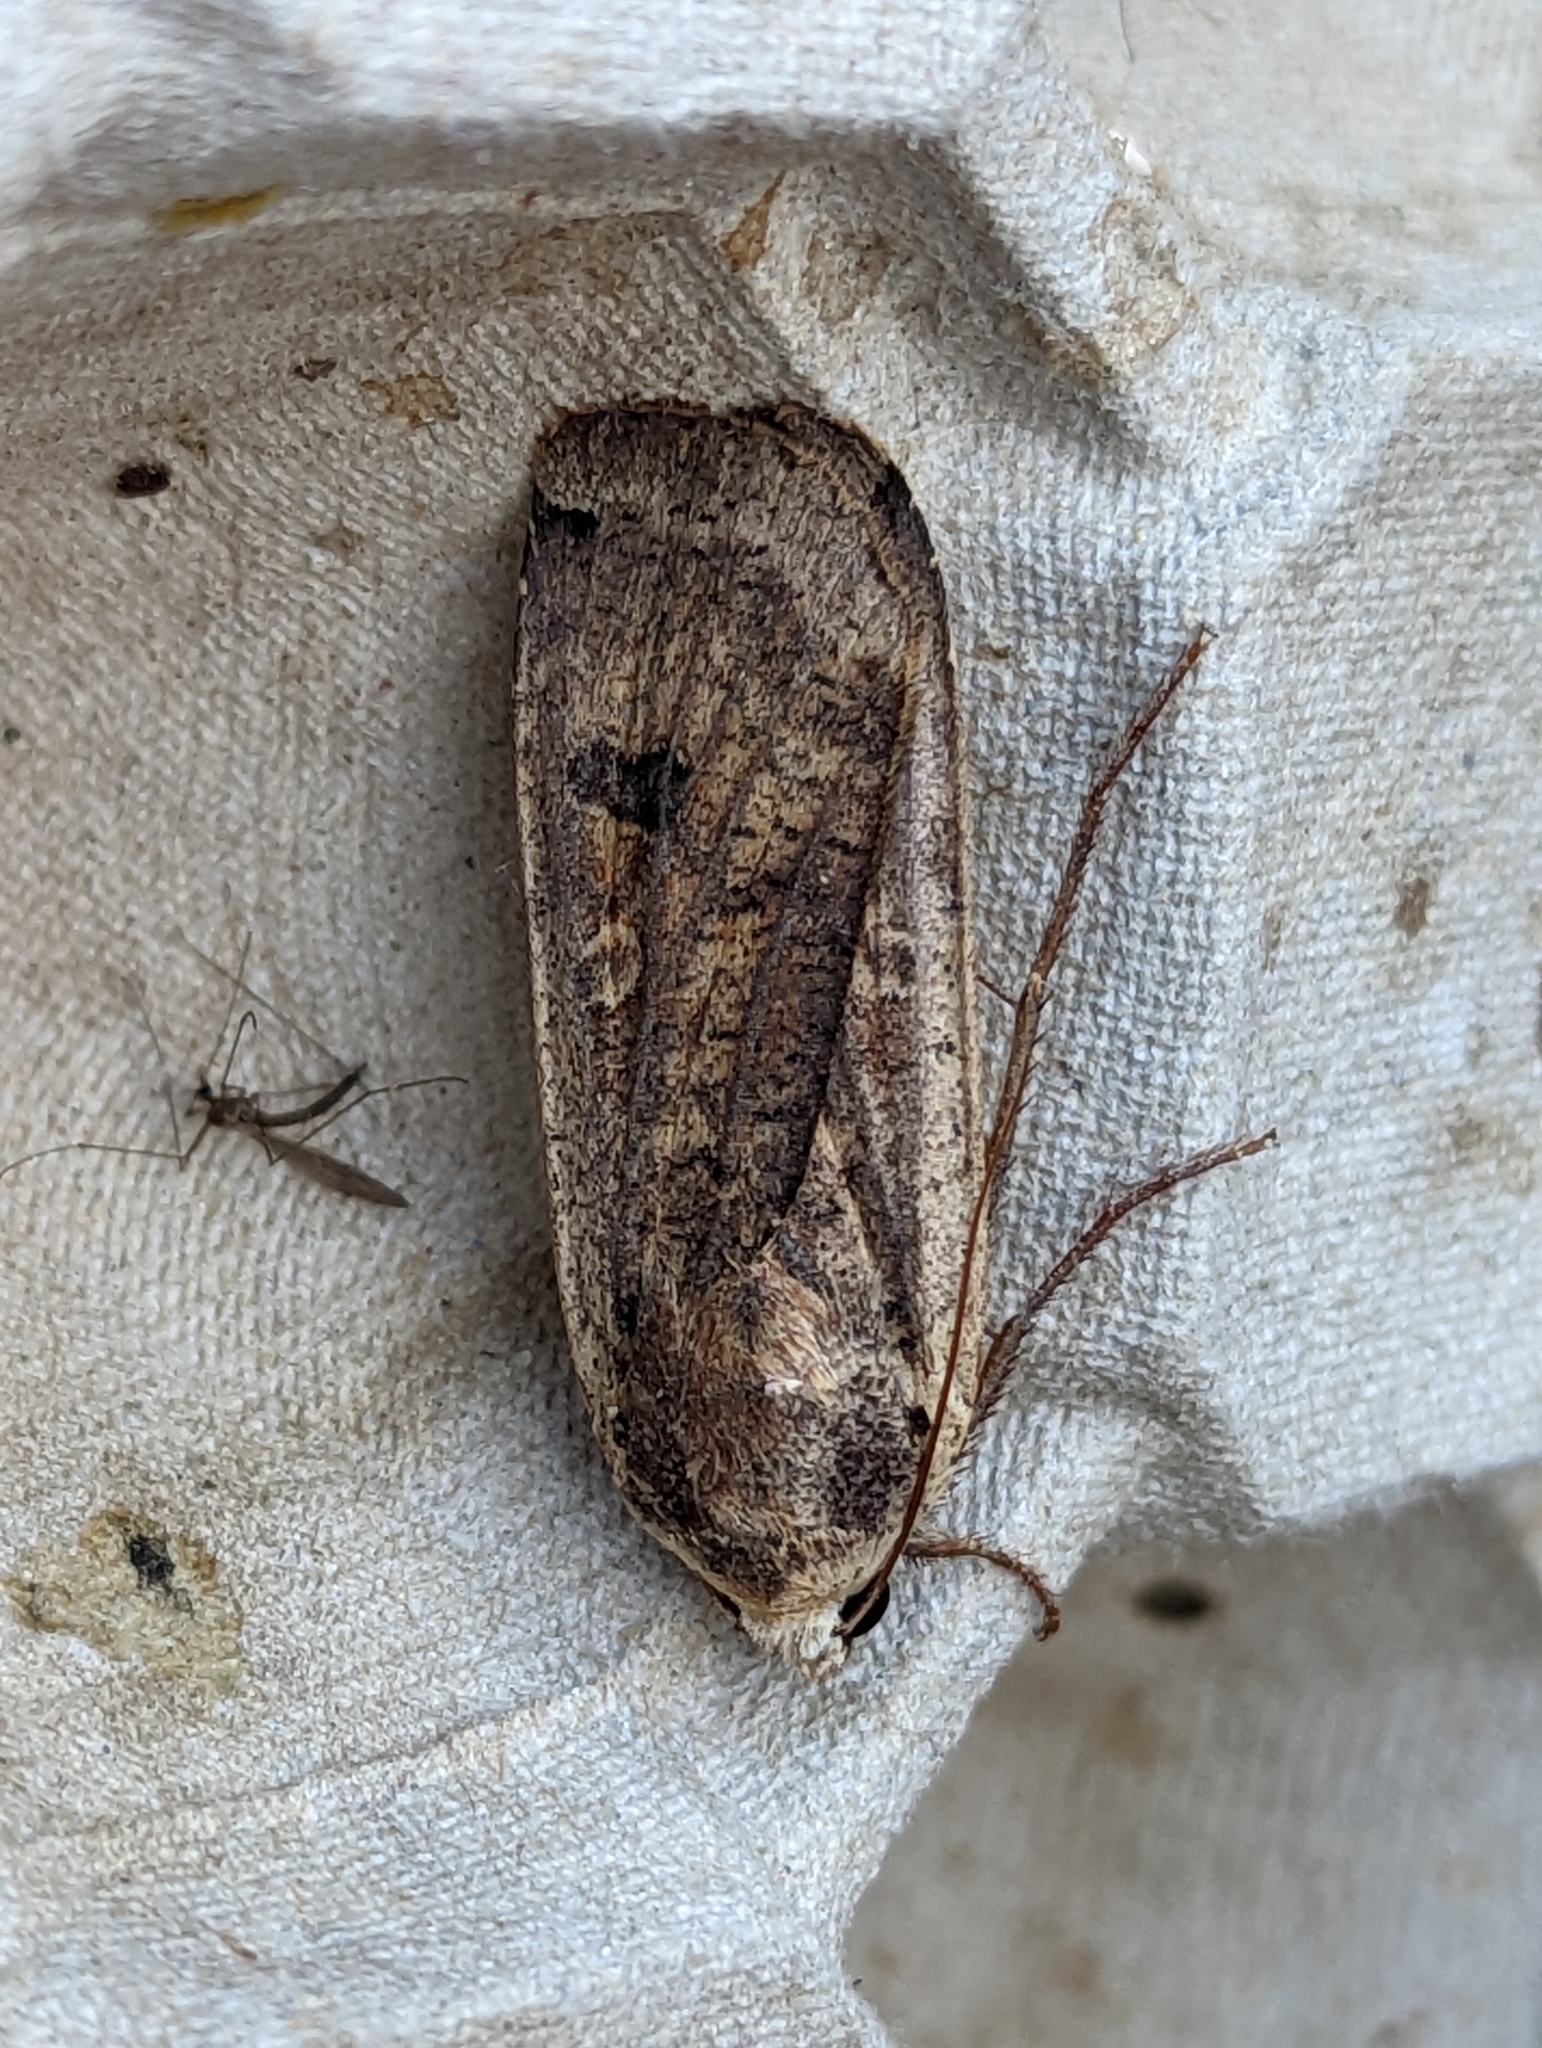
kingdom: Animalia
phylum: Arthropoda
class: Insecta
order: Lepidoptera
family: Noctuidae
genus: Noctua
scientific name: Noctua pronuba
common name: Large yellow underwing
